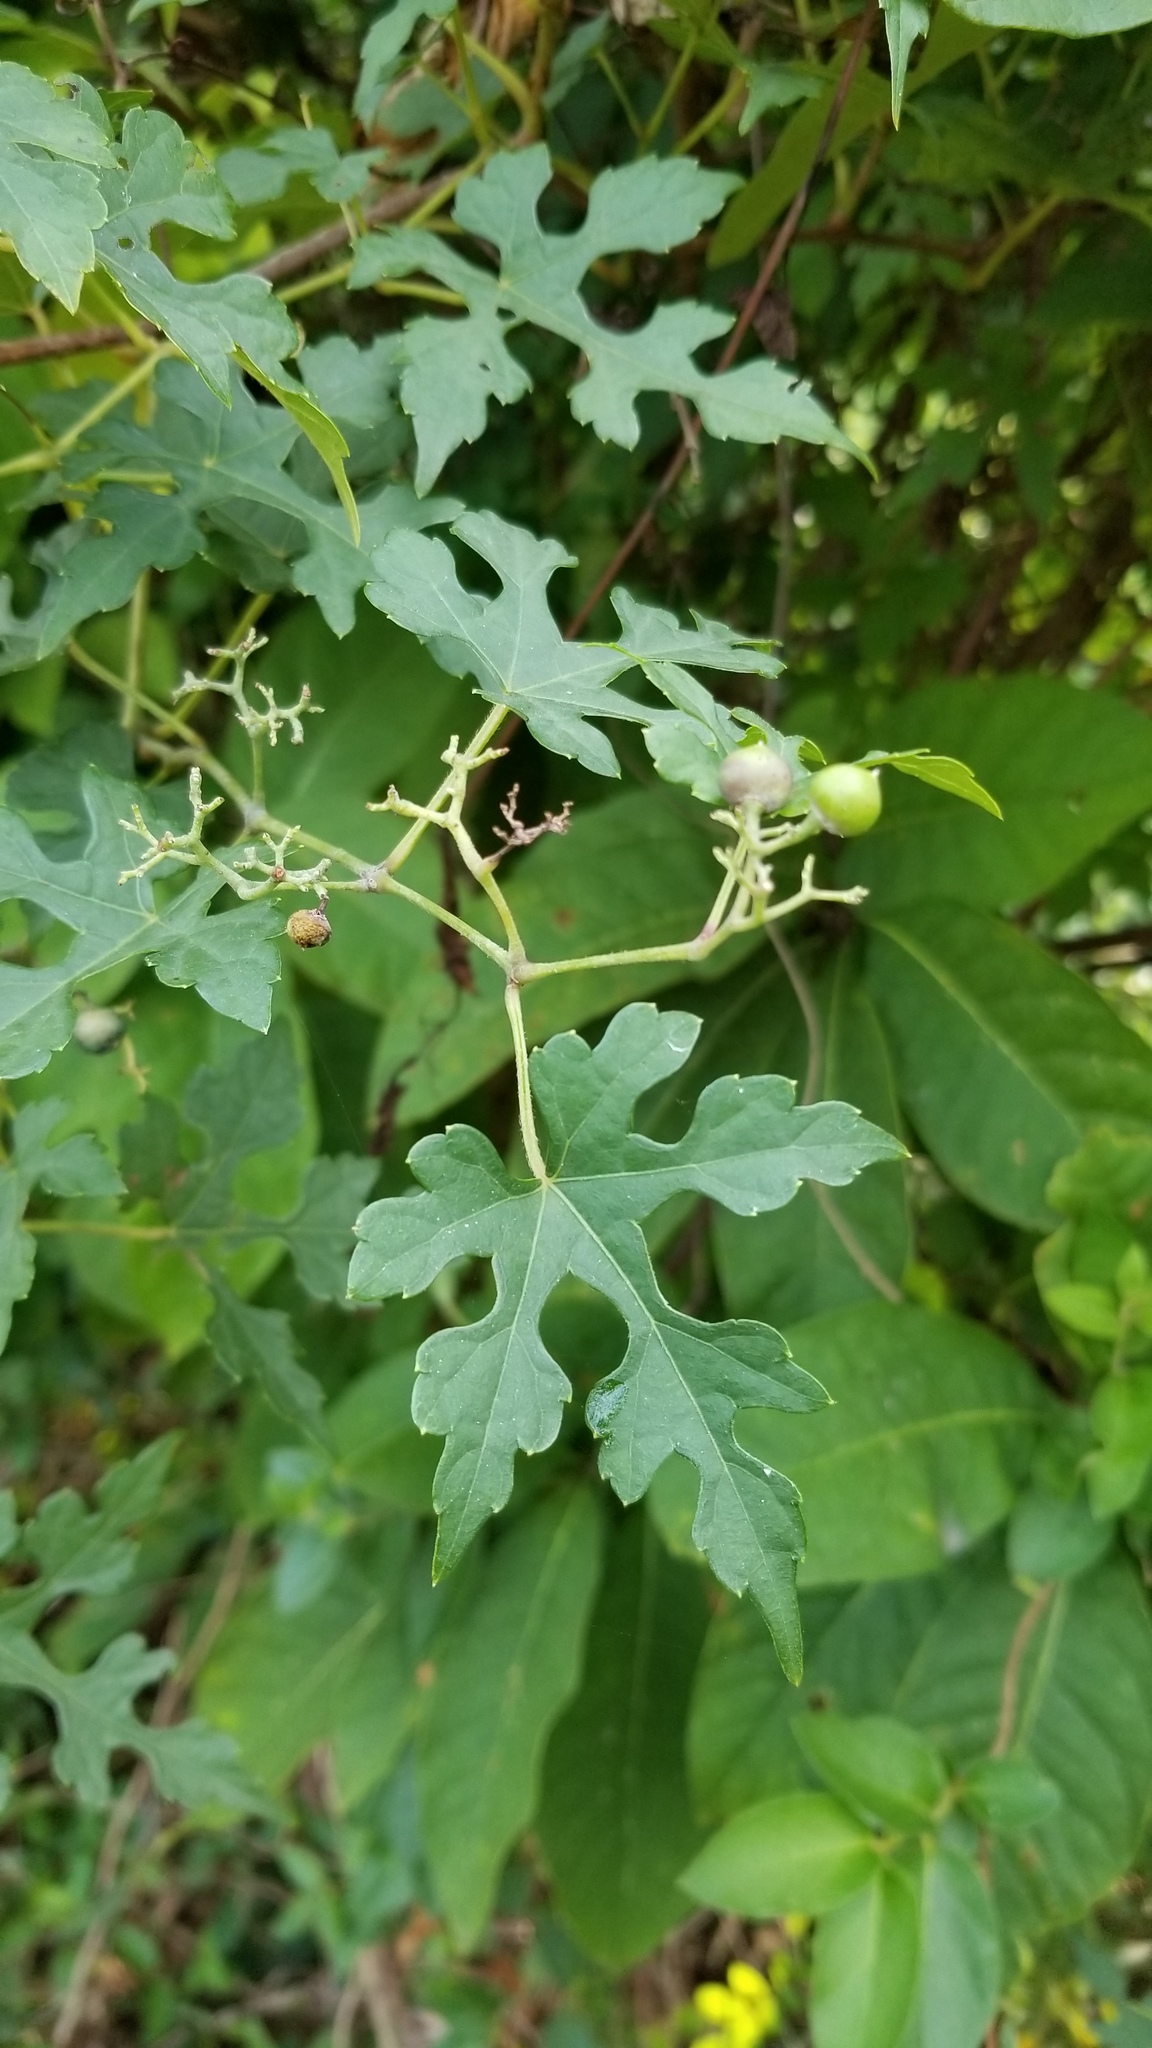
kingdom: Plantae
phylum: Tracheophyta
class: Magnoliopsida
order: Vitales
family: Vitaceae
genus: Ampelopsis
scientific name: Ampelopsis glandulosa
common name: Amur peppervine
